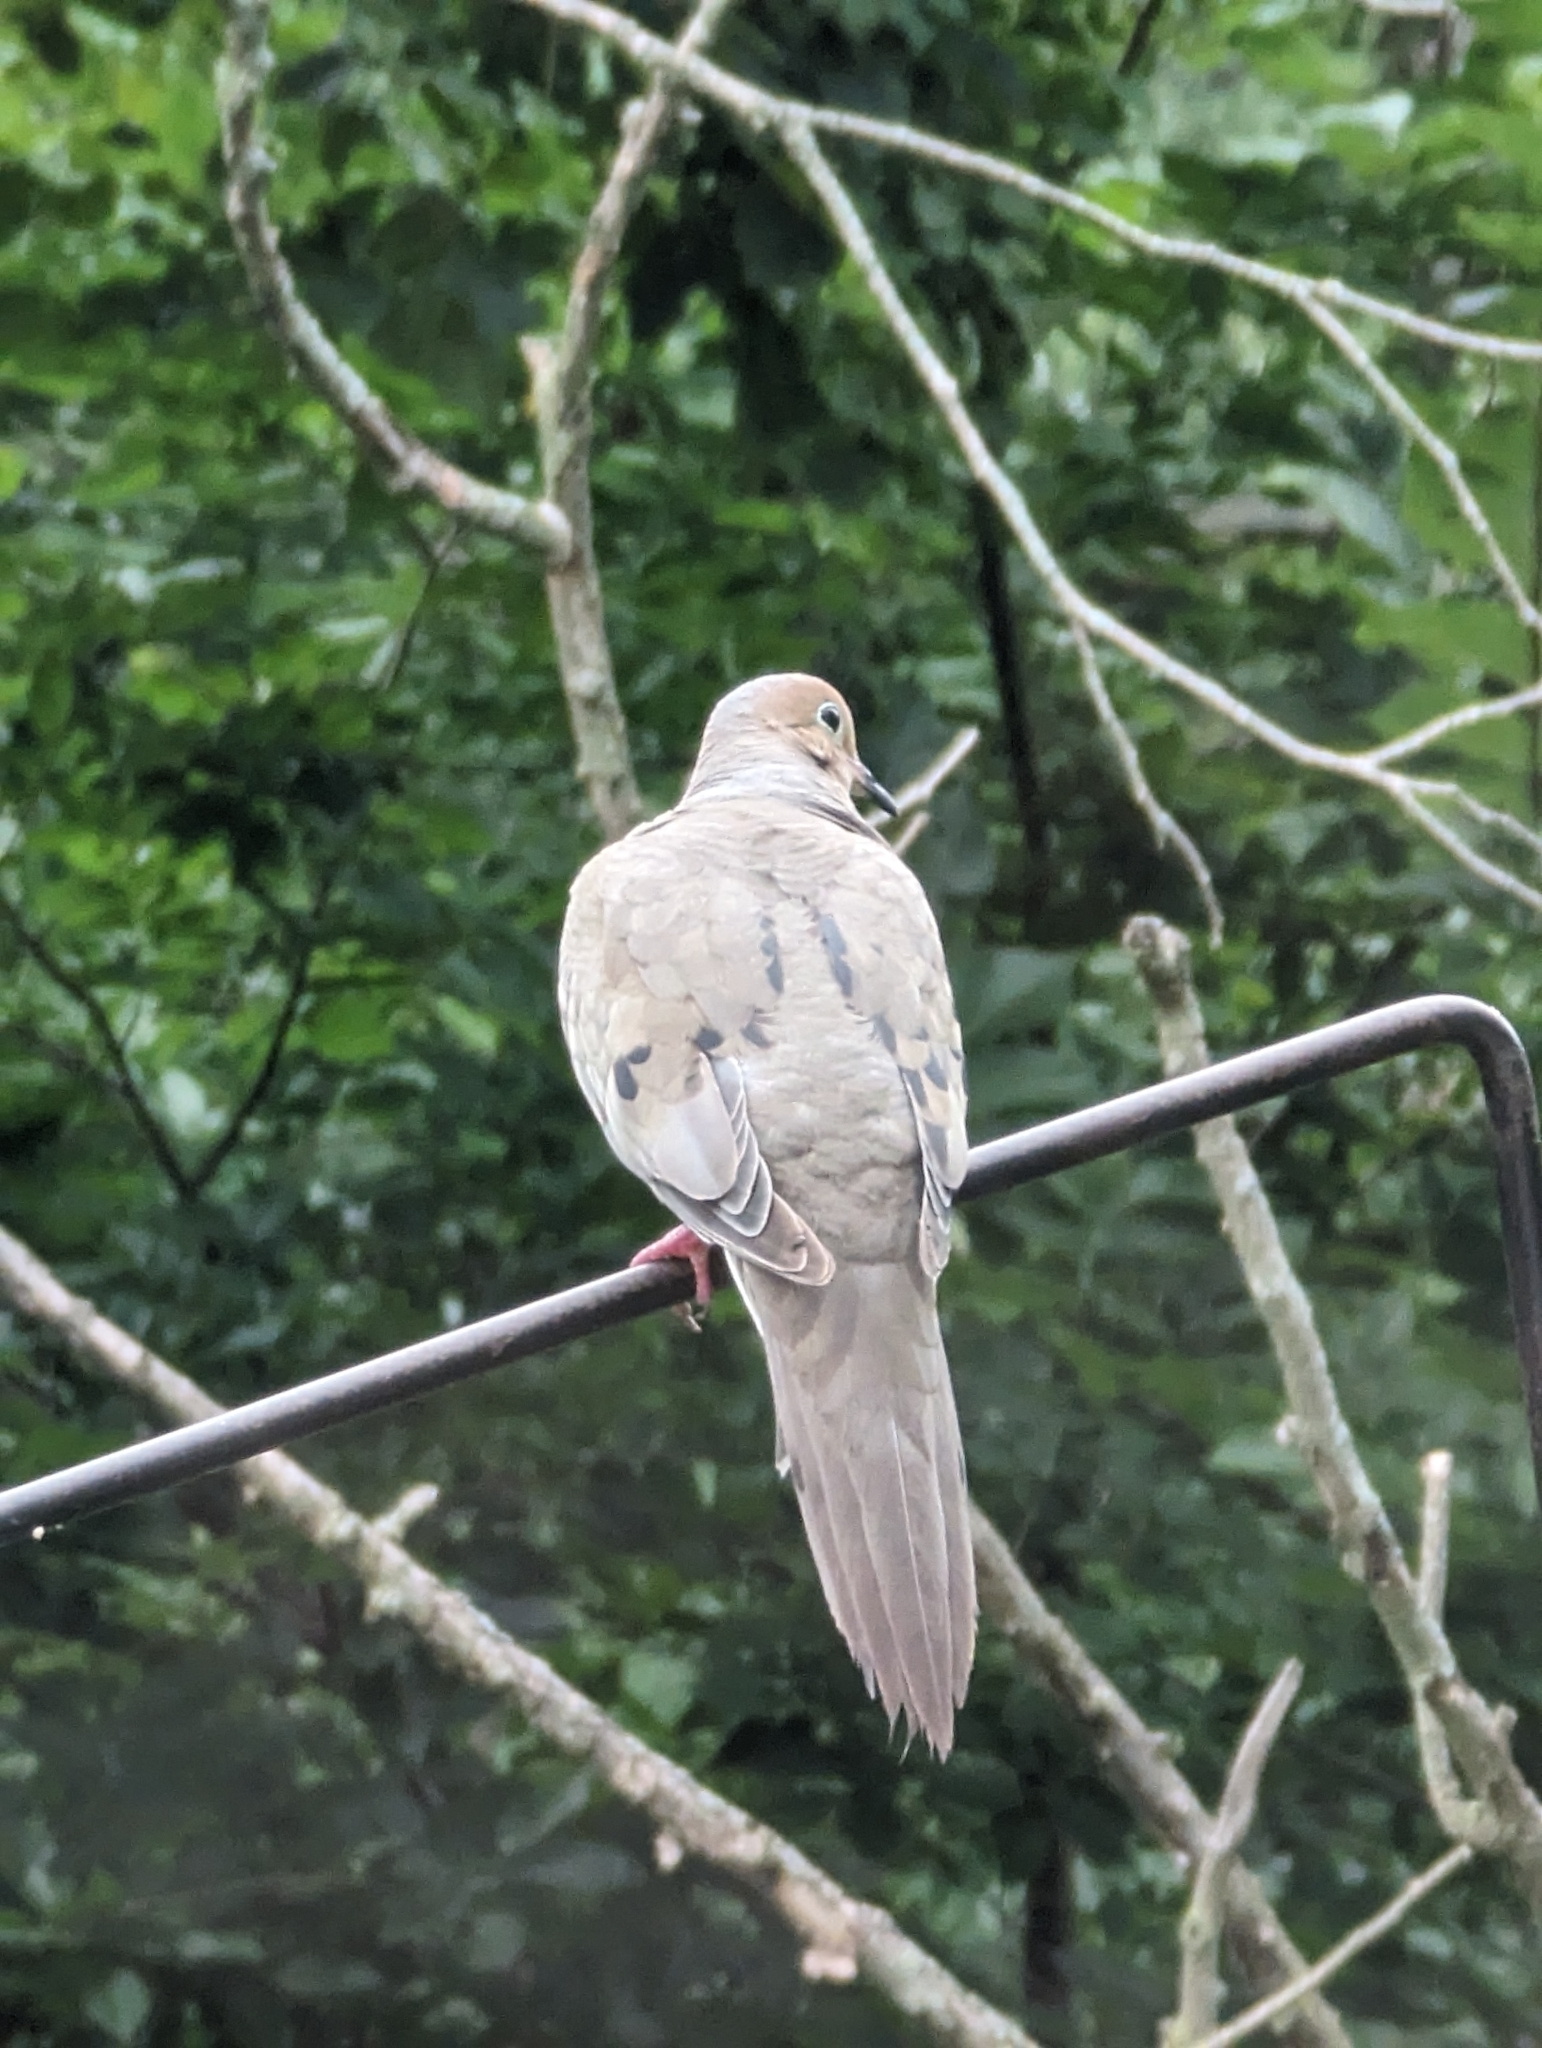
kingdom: Animalia
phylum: Chordata
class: Aves
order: Columbiformes
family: Columbidae
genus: Zenaida
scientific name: Zenaida macroura
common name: Mourning dove
